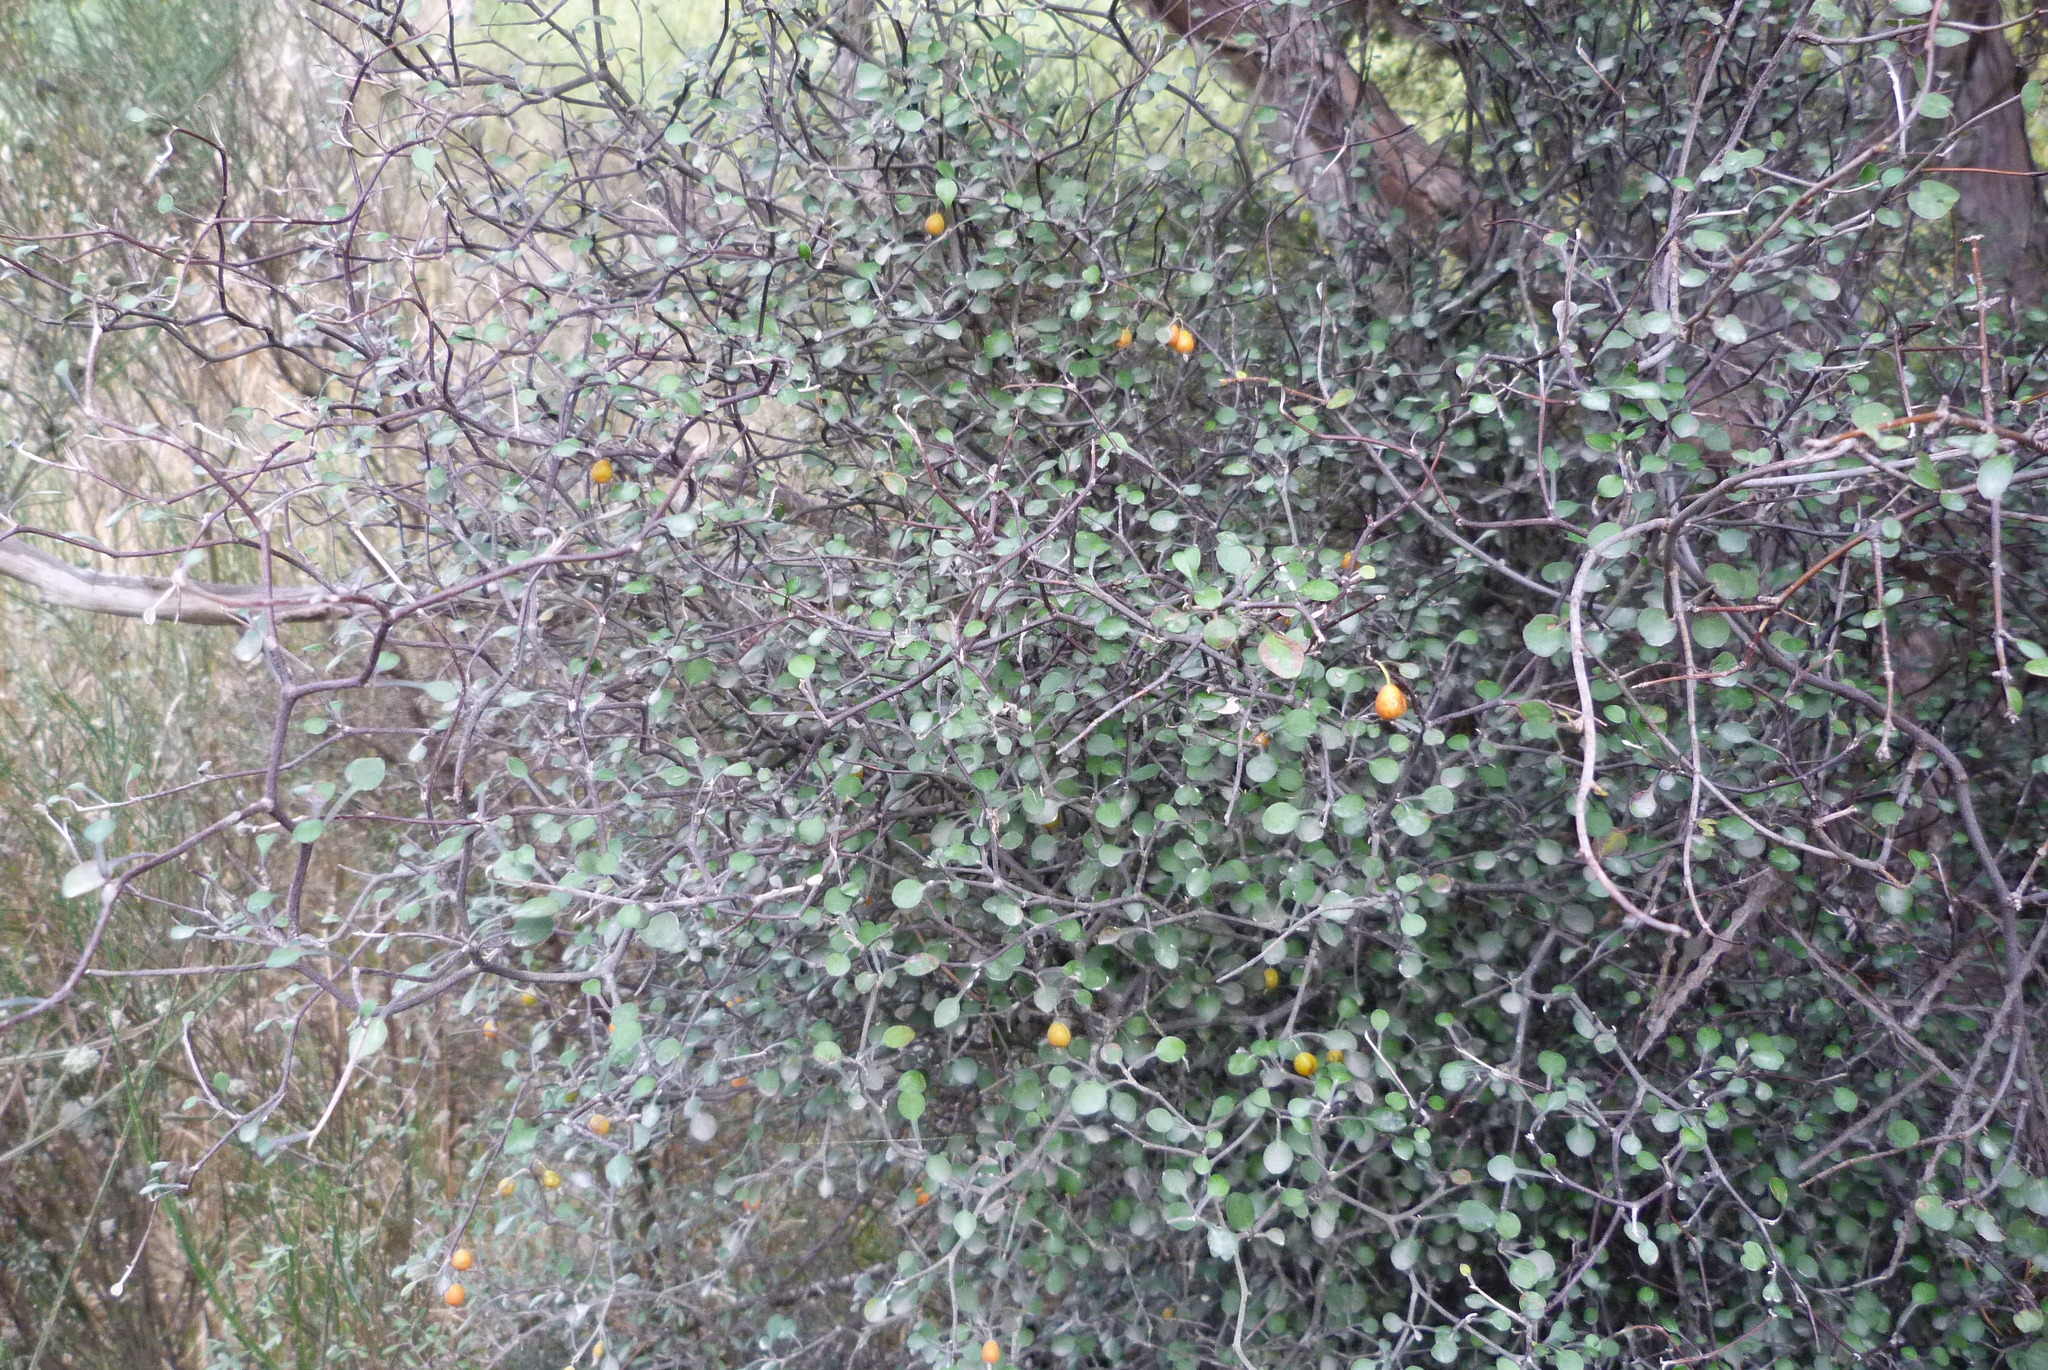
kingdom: Plantae
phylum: Tracheophyta
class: Magnoliopsida
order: Asterales
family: Argophyllaceae
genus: Corokia
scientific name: Corokia cotoneaster
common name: Wire nettingbush
